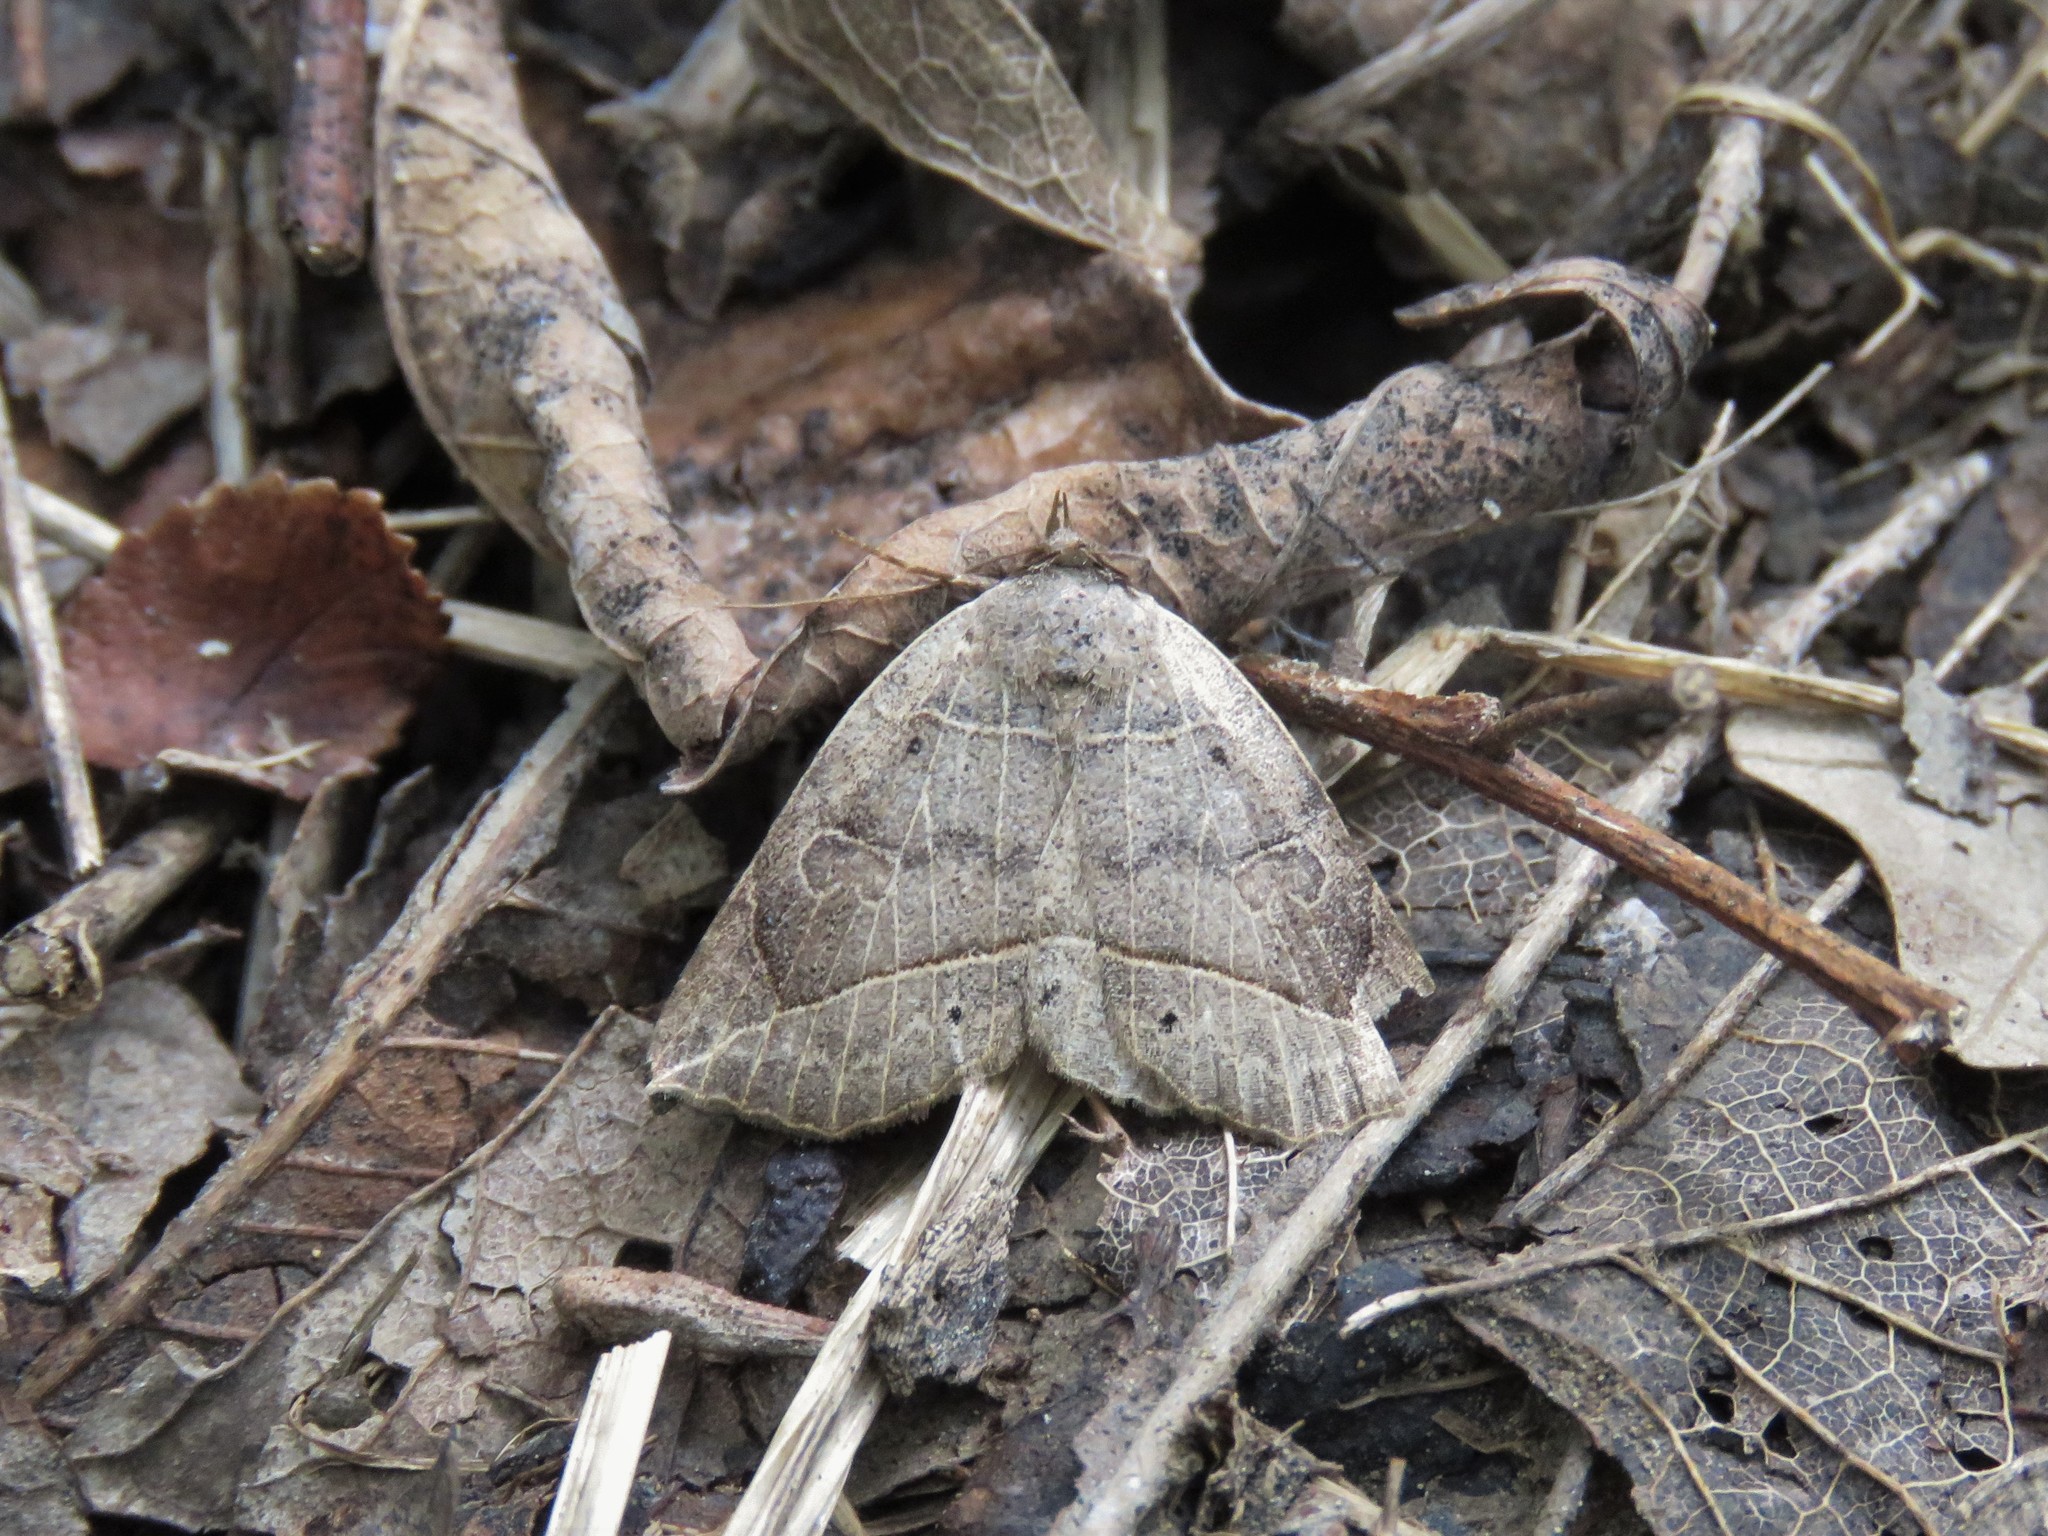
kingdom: Animalia
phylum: Arthropoda
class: Insecta
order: Lepidoptera
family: Erebidae
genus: Isogona
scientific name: Isogona tenuis
